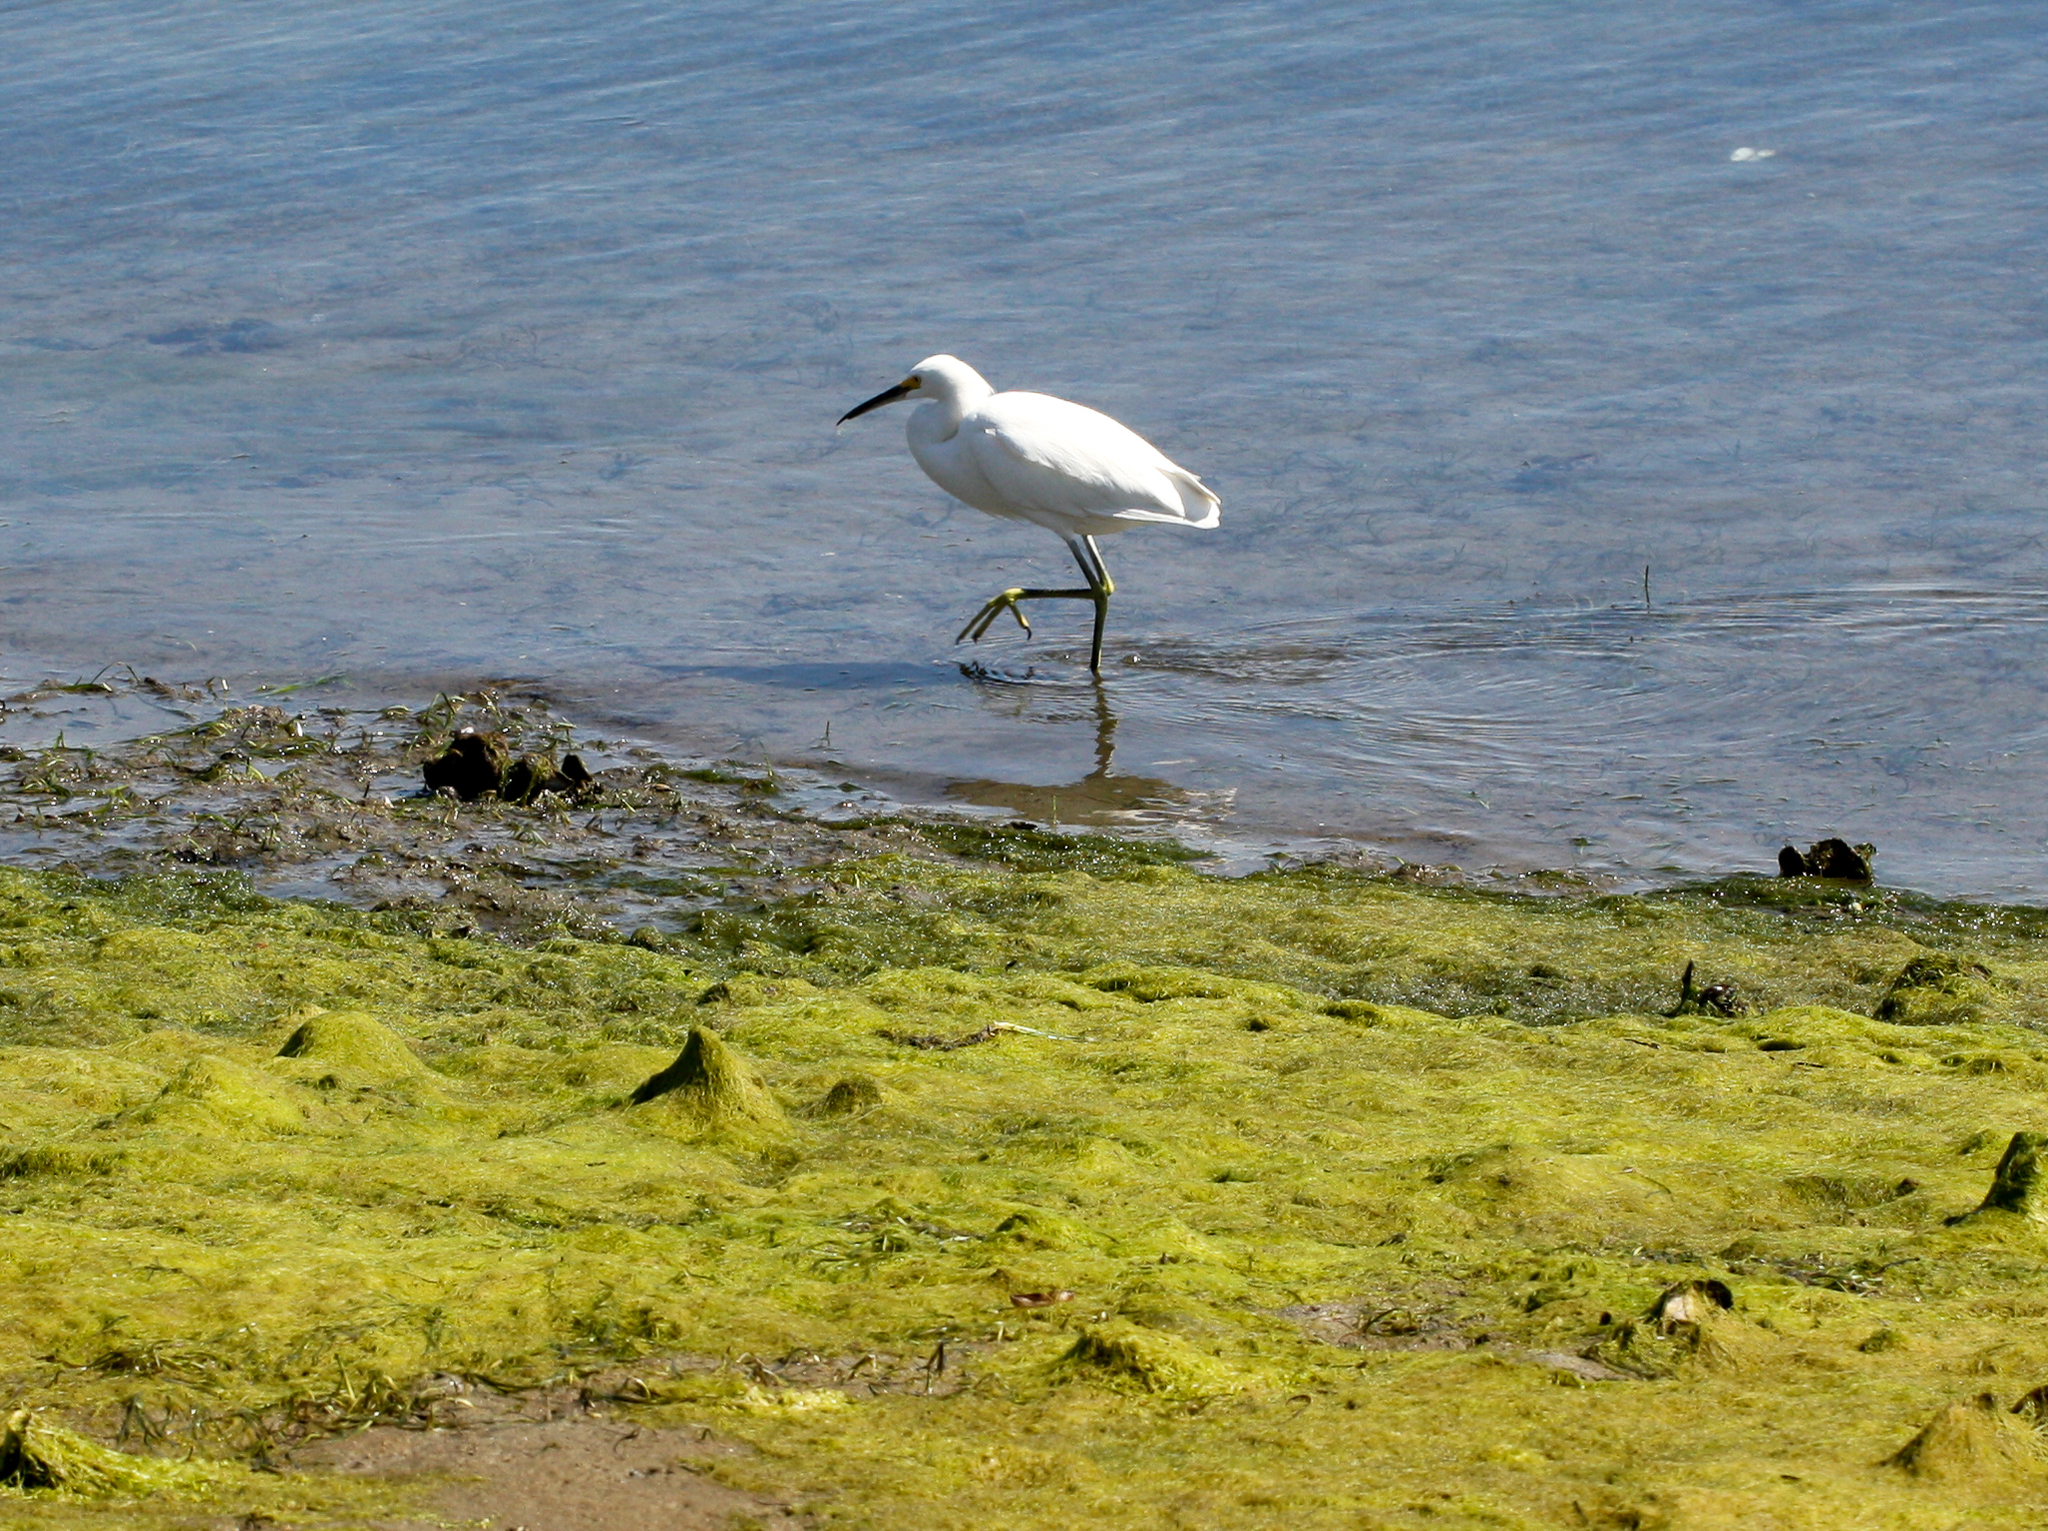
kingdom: Animalia
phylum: Chordata
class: Aves
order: Pelecaniformes
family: Ardeidae
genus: Egretta
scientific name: Egretta thula
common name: Snowy egret
